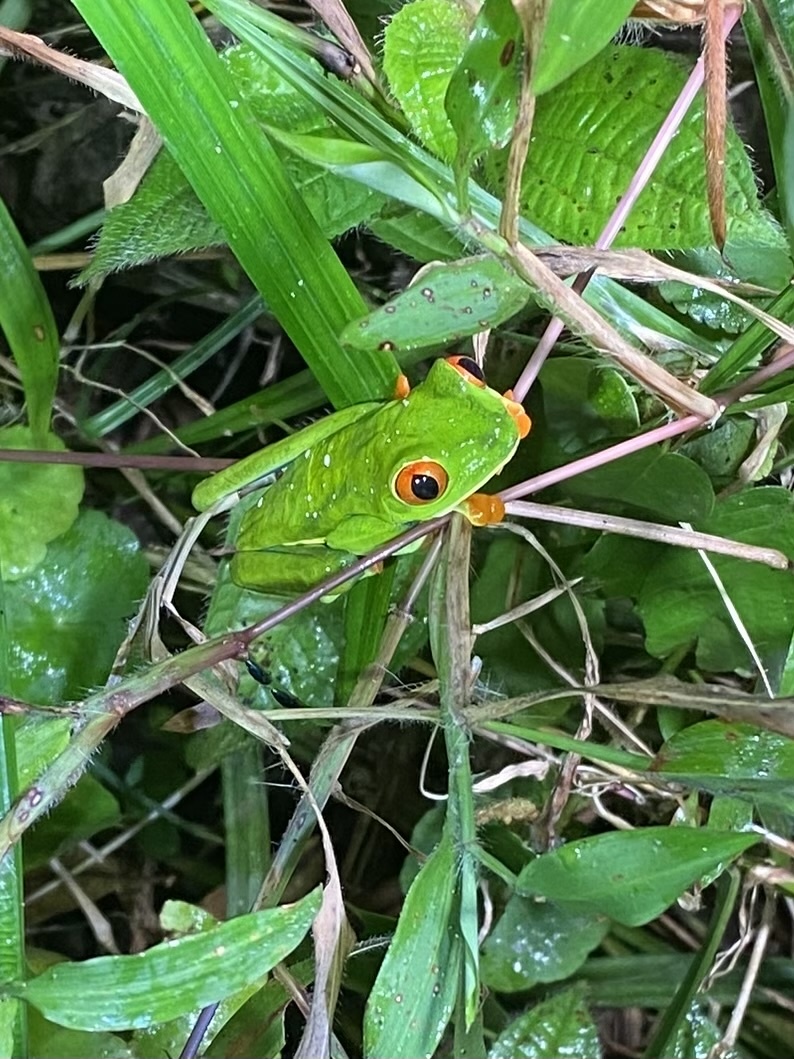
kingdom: Animalia
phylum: Chordata
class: Amphibia
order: Anura
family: Phyllomedusidae
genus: Agalychnis
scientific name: Agalychnis callidryas
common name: Red-eyed treefrog
